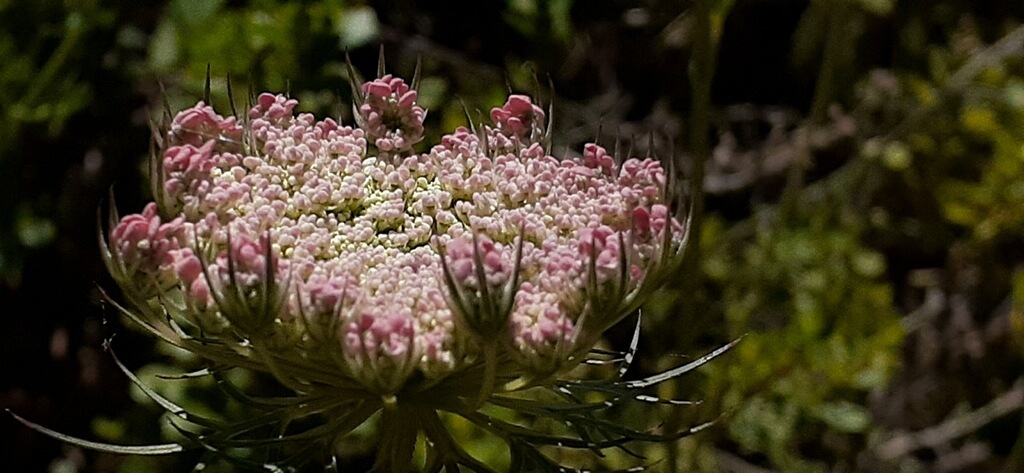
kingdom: Plantae
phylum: Tracheophyta
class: Magnoliopsida
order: Apiales
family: Apiaceae
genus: Daucus
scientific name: Daucus carota
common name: Wild carrot
